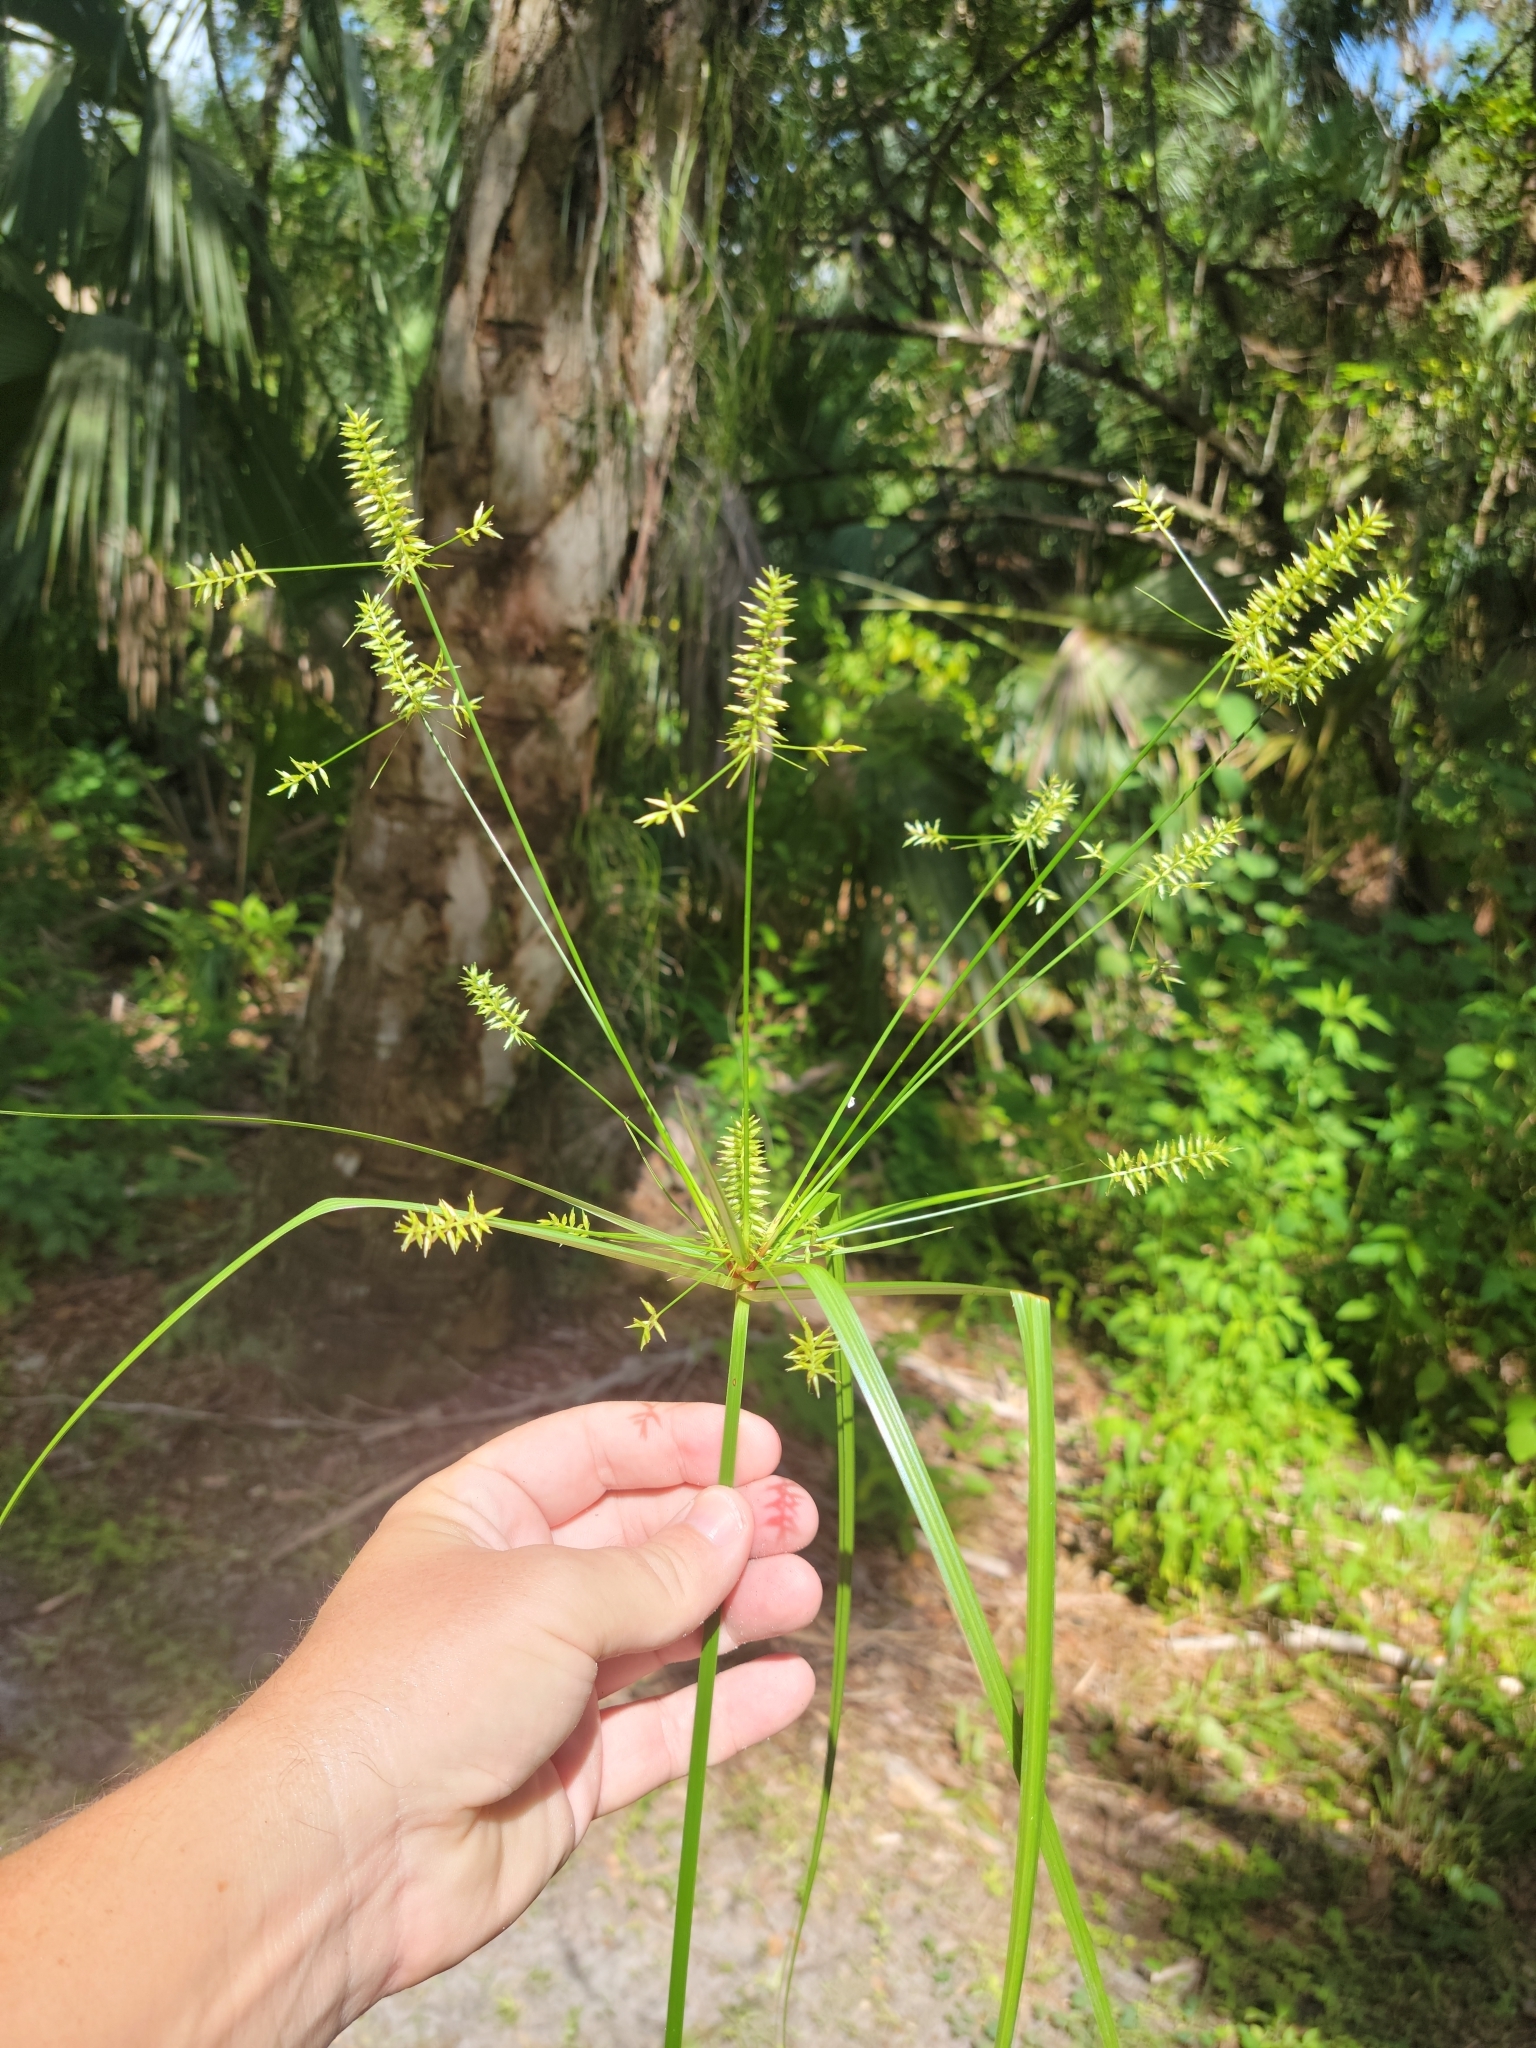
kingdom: Plantae
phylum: Tracheophyta
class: Liliopsida
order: Poales
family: Cyperaceae
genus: Cyperus
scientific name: Cyperus tetragonus
